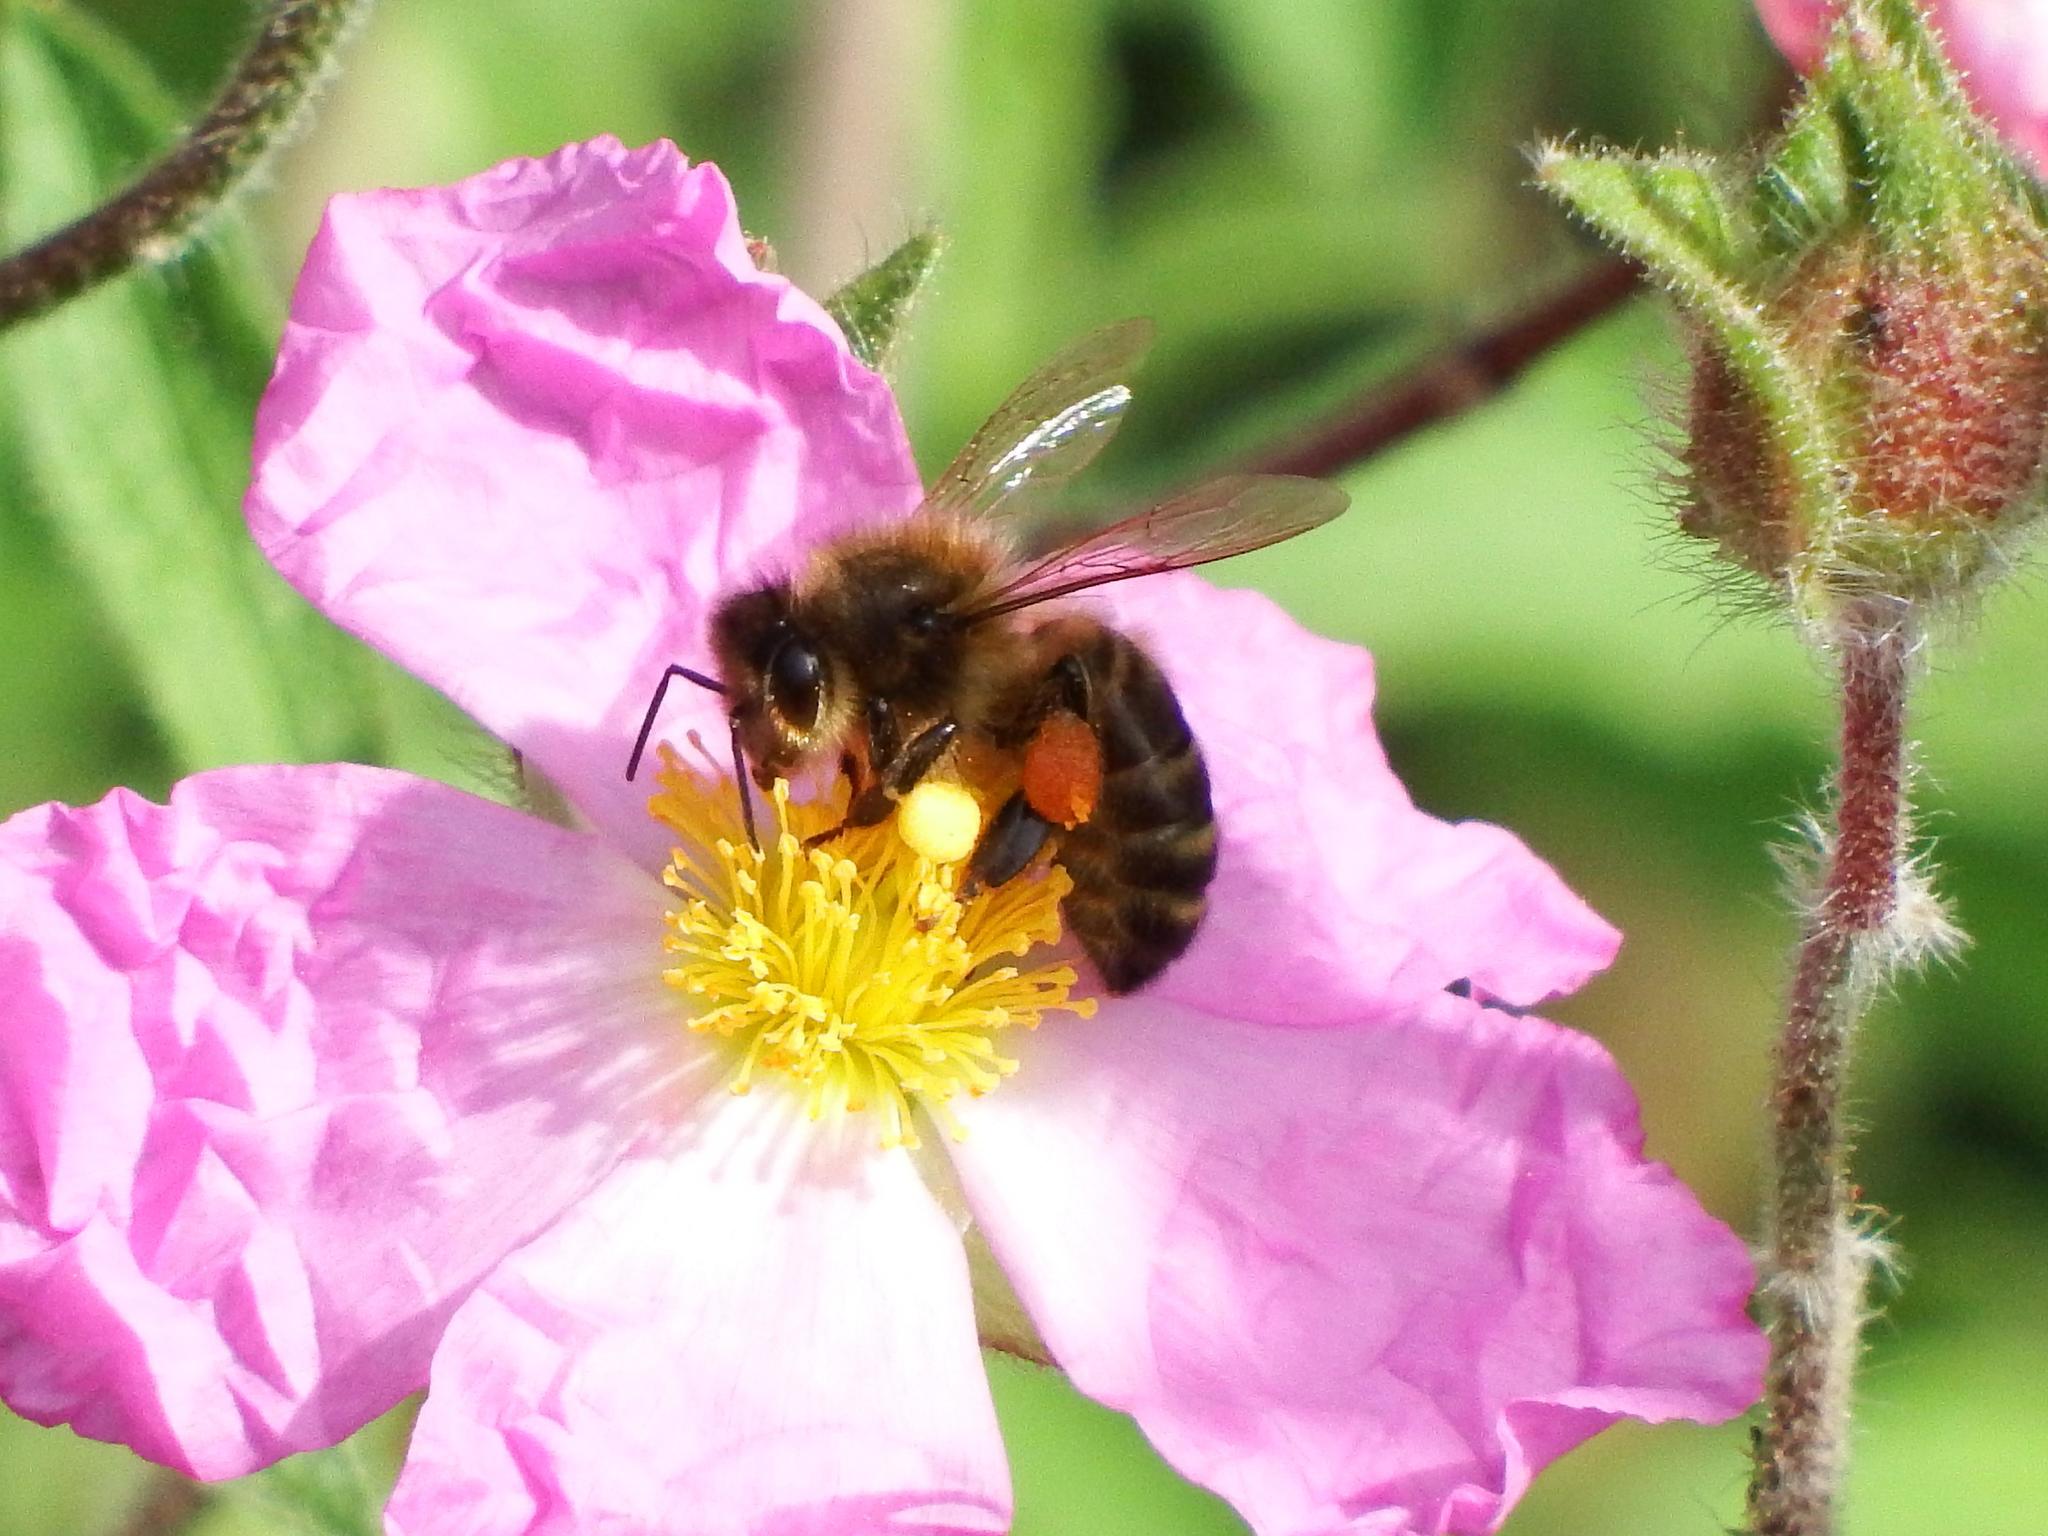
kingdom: Animalia
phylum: Arthropoda
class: Insecta
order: Hymenoptera
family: Apidae
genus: Apis
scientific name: Apis mellifera
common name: Honey bee
